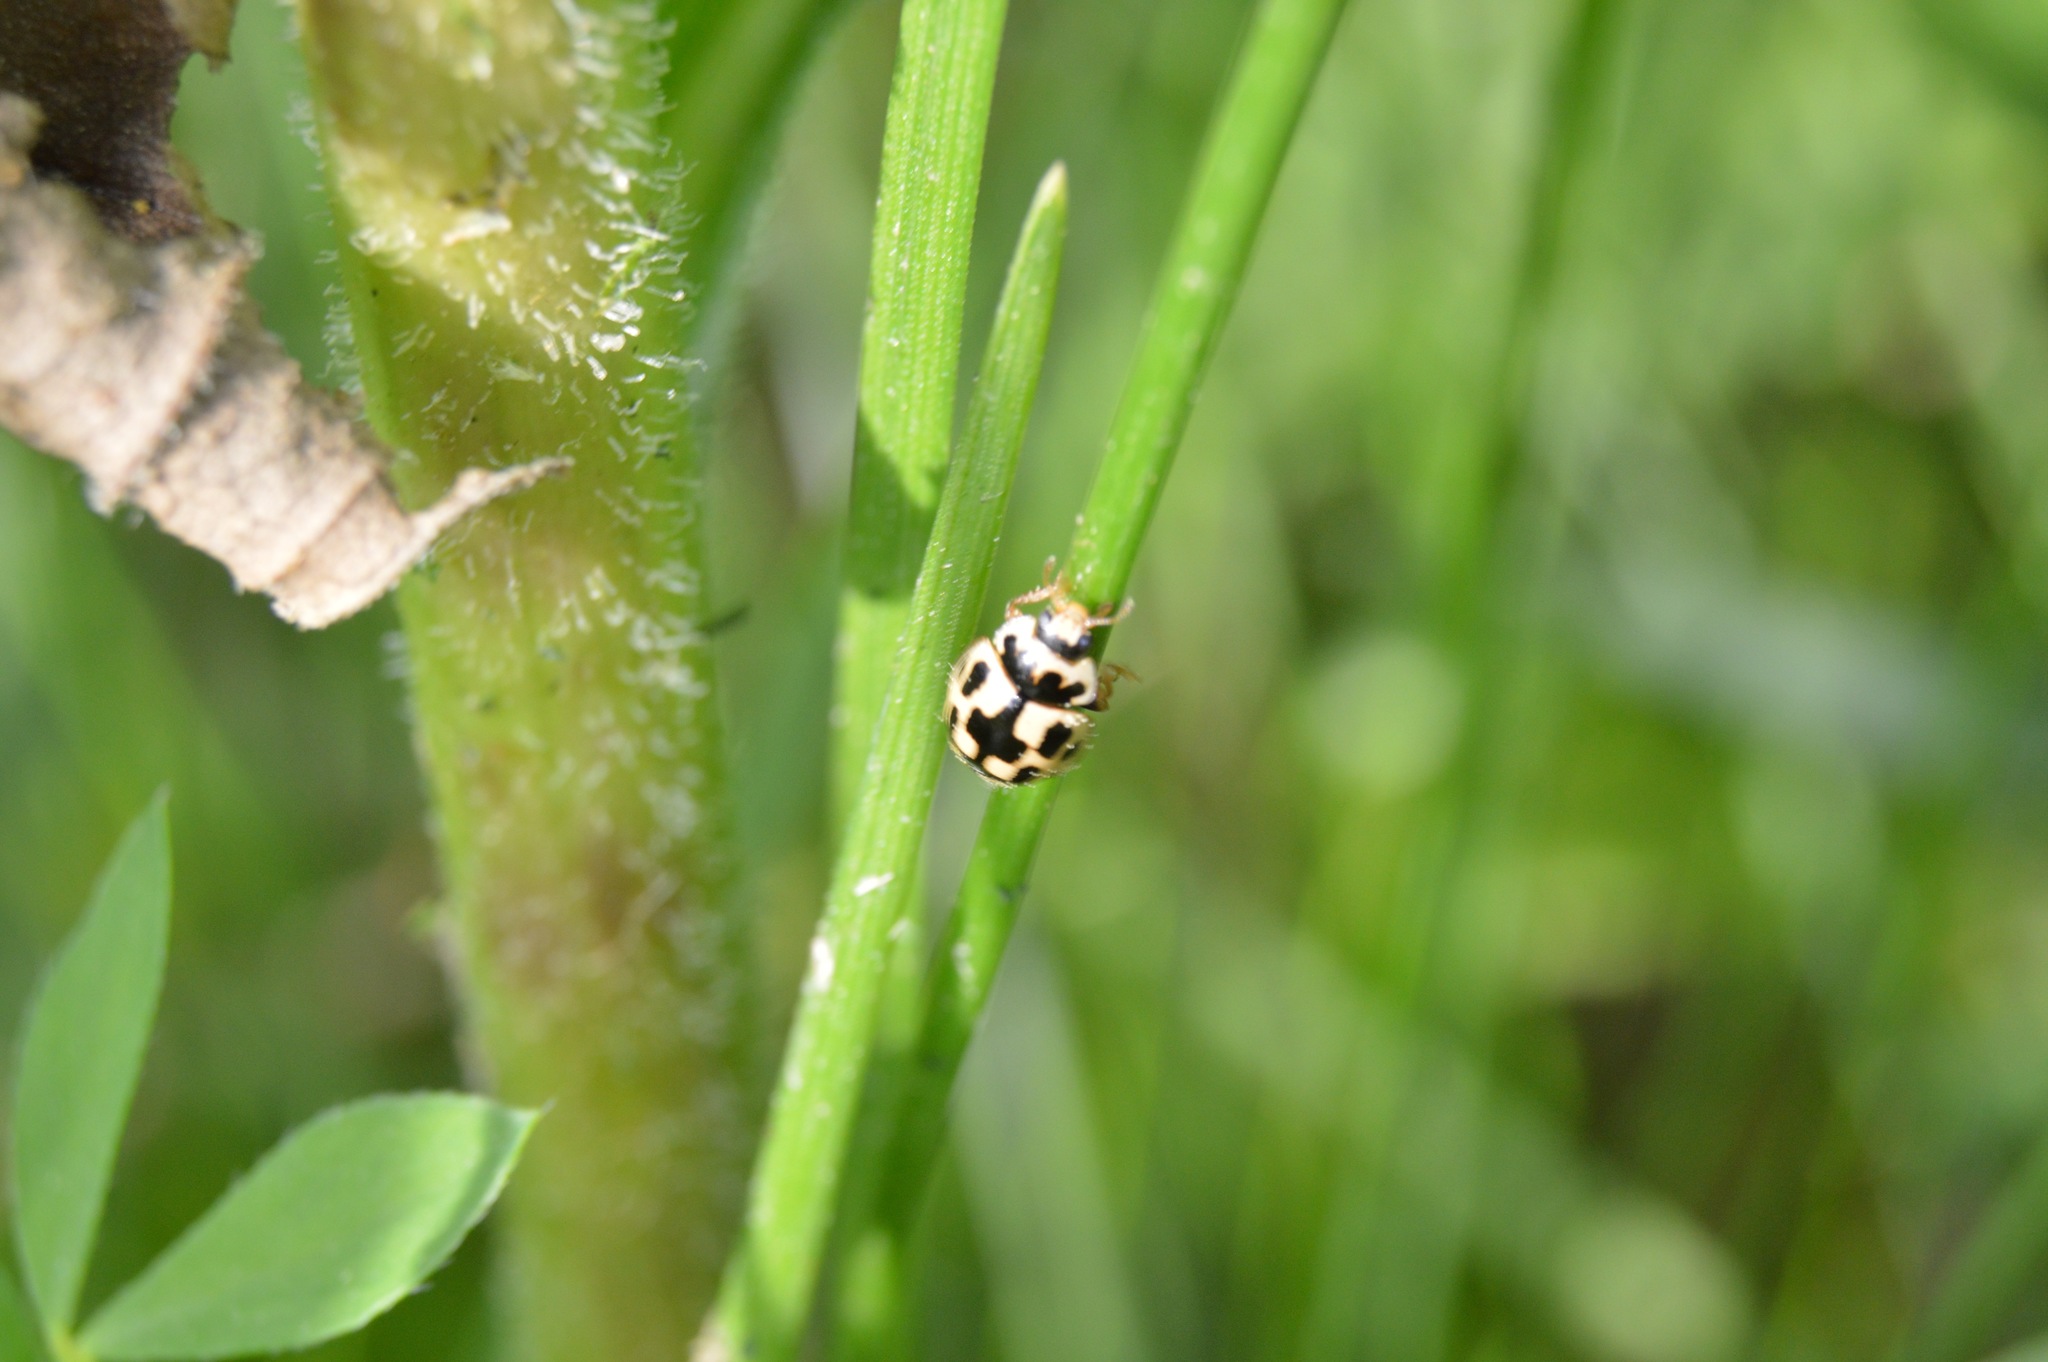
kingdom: Animalia
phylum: Arthropoda
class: Insecta
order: Coleoptera
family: Coccinellidae
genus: Propylaea
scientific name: Propylaea quatuordecimpunctata
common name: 14-spotted ladybird beetle
